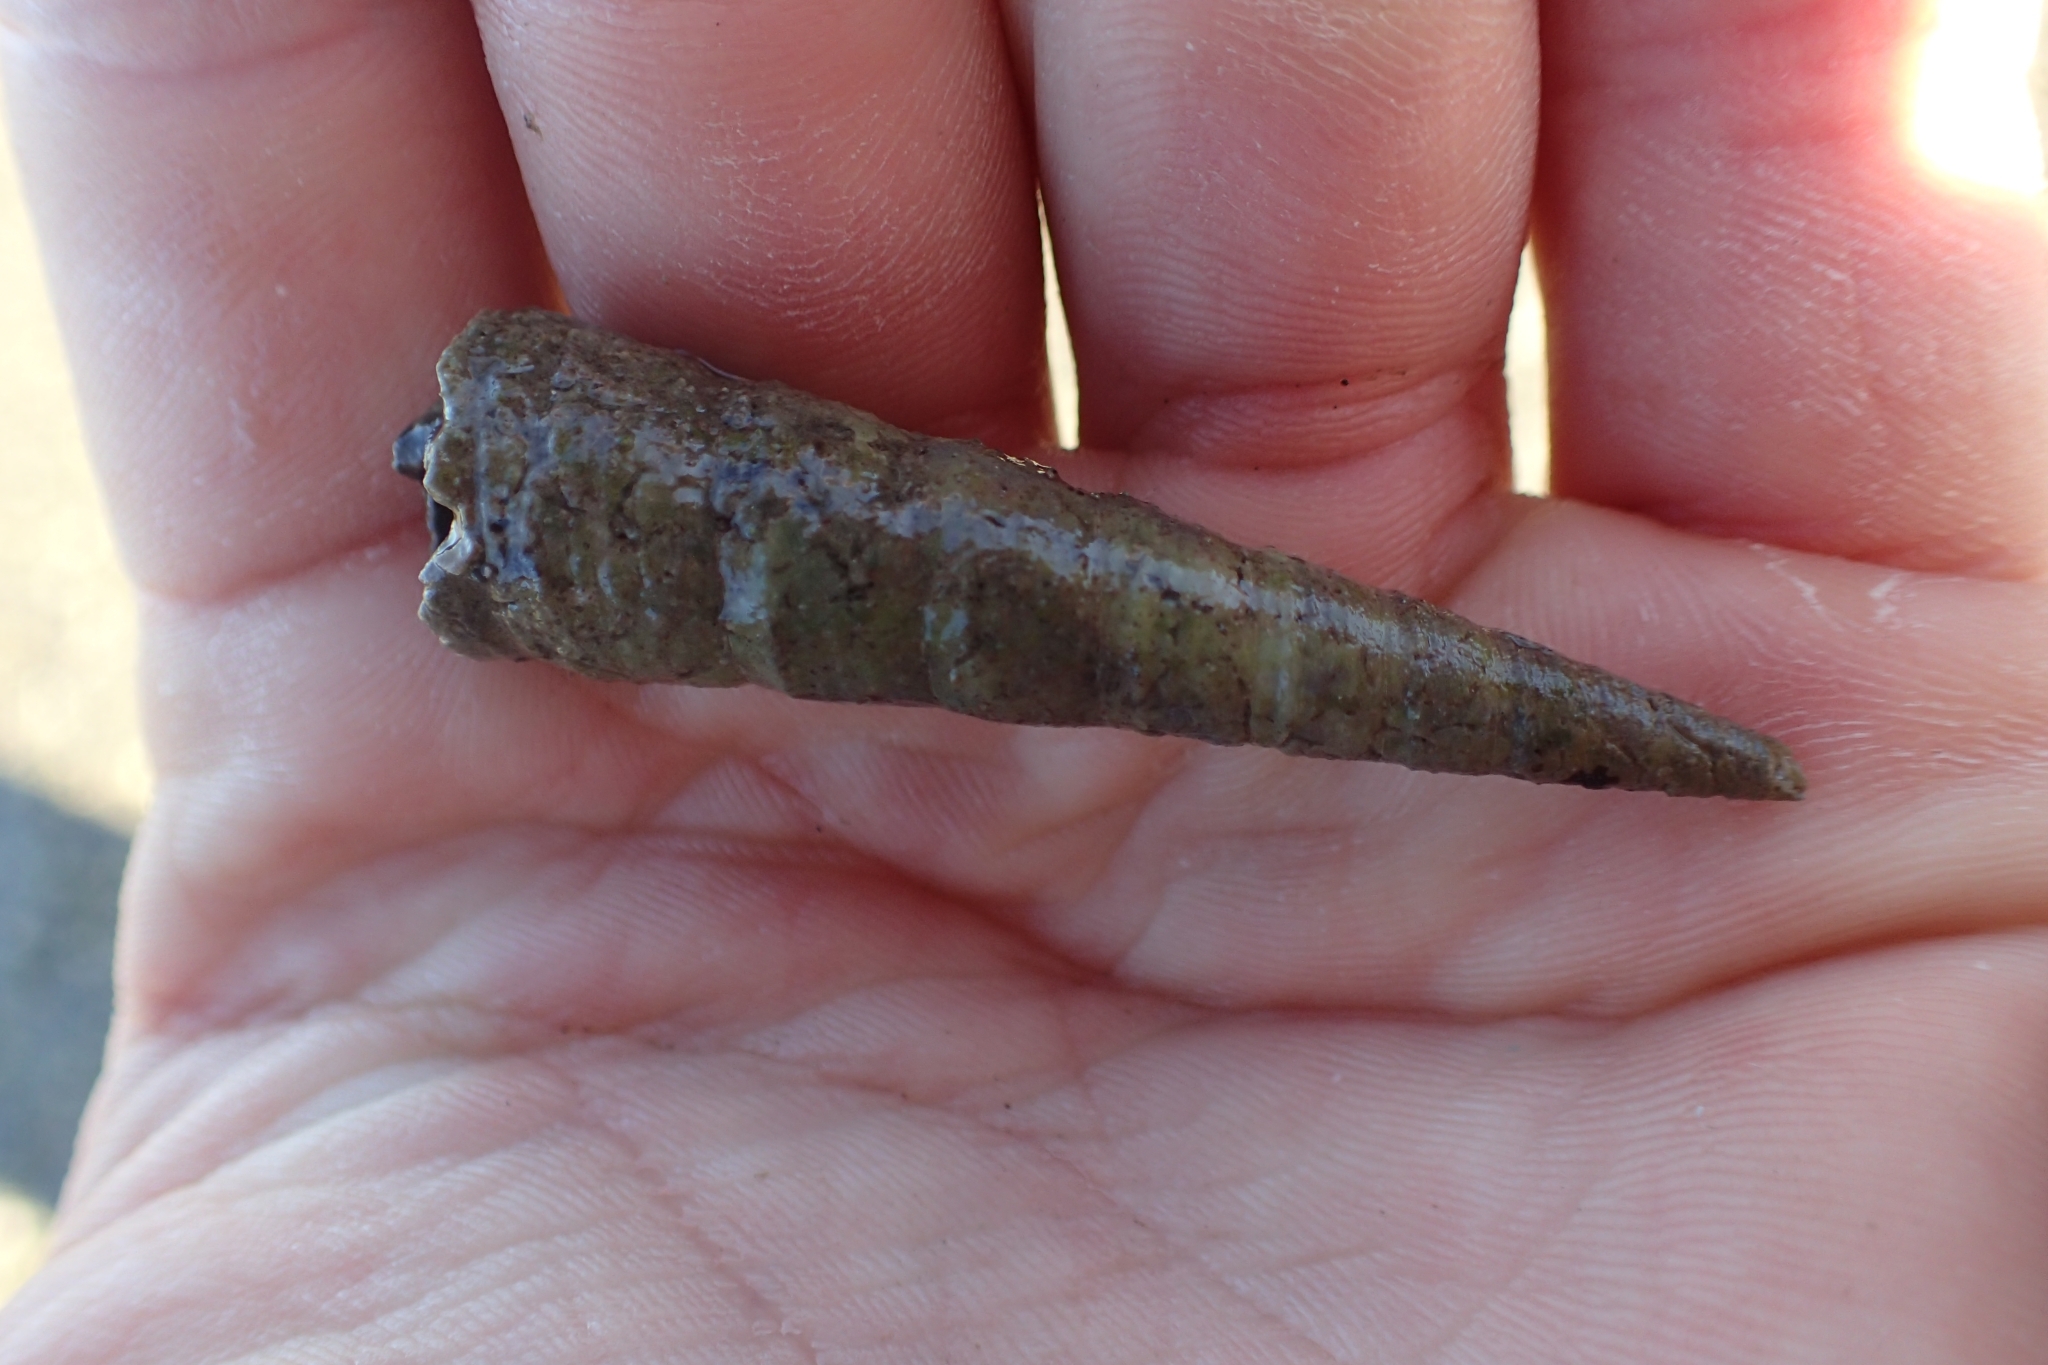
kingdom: Animalia
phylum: Mollusca
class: Gastropoda
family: Turritellidae
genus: Maoricolpus
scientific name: Maoricolpus roseus
